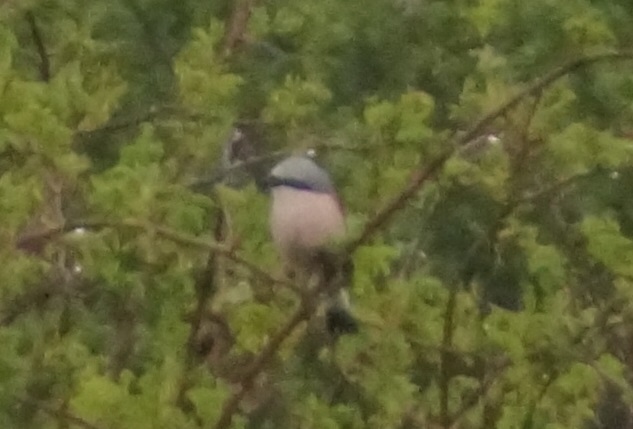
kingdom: Animalia
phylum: Chordata
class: Aves
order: Passeriformes
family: Laniidae
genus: Lanius
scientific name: Lanius collurio
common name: Red-backed shrike
